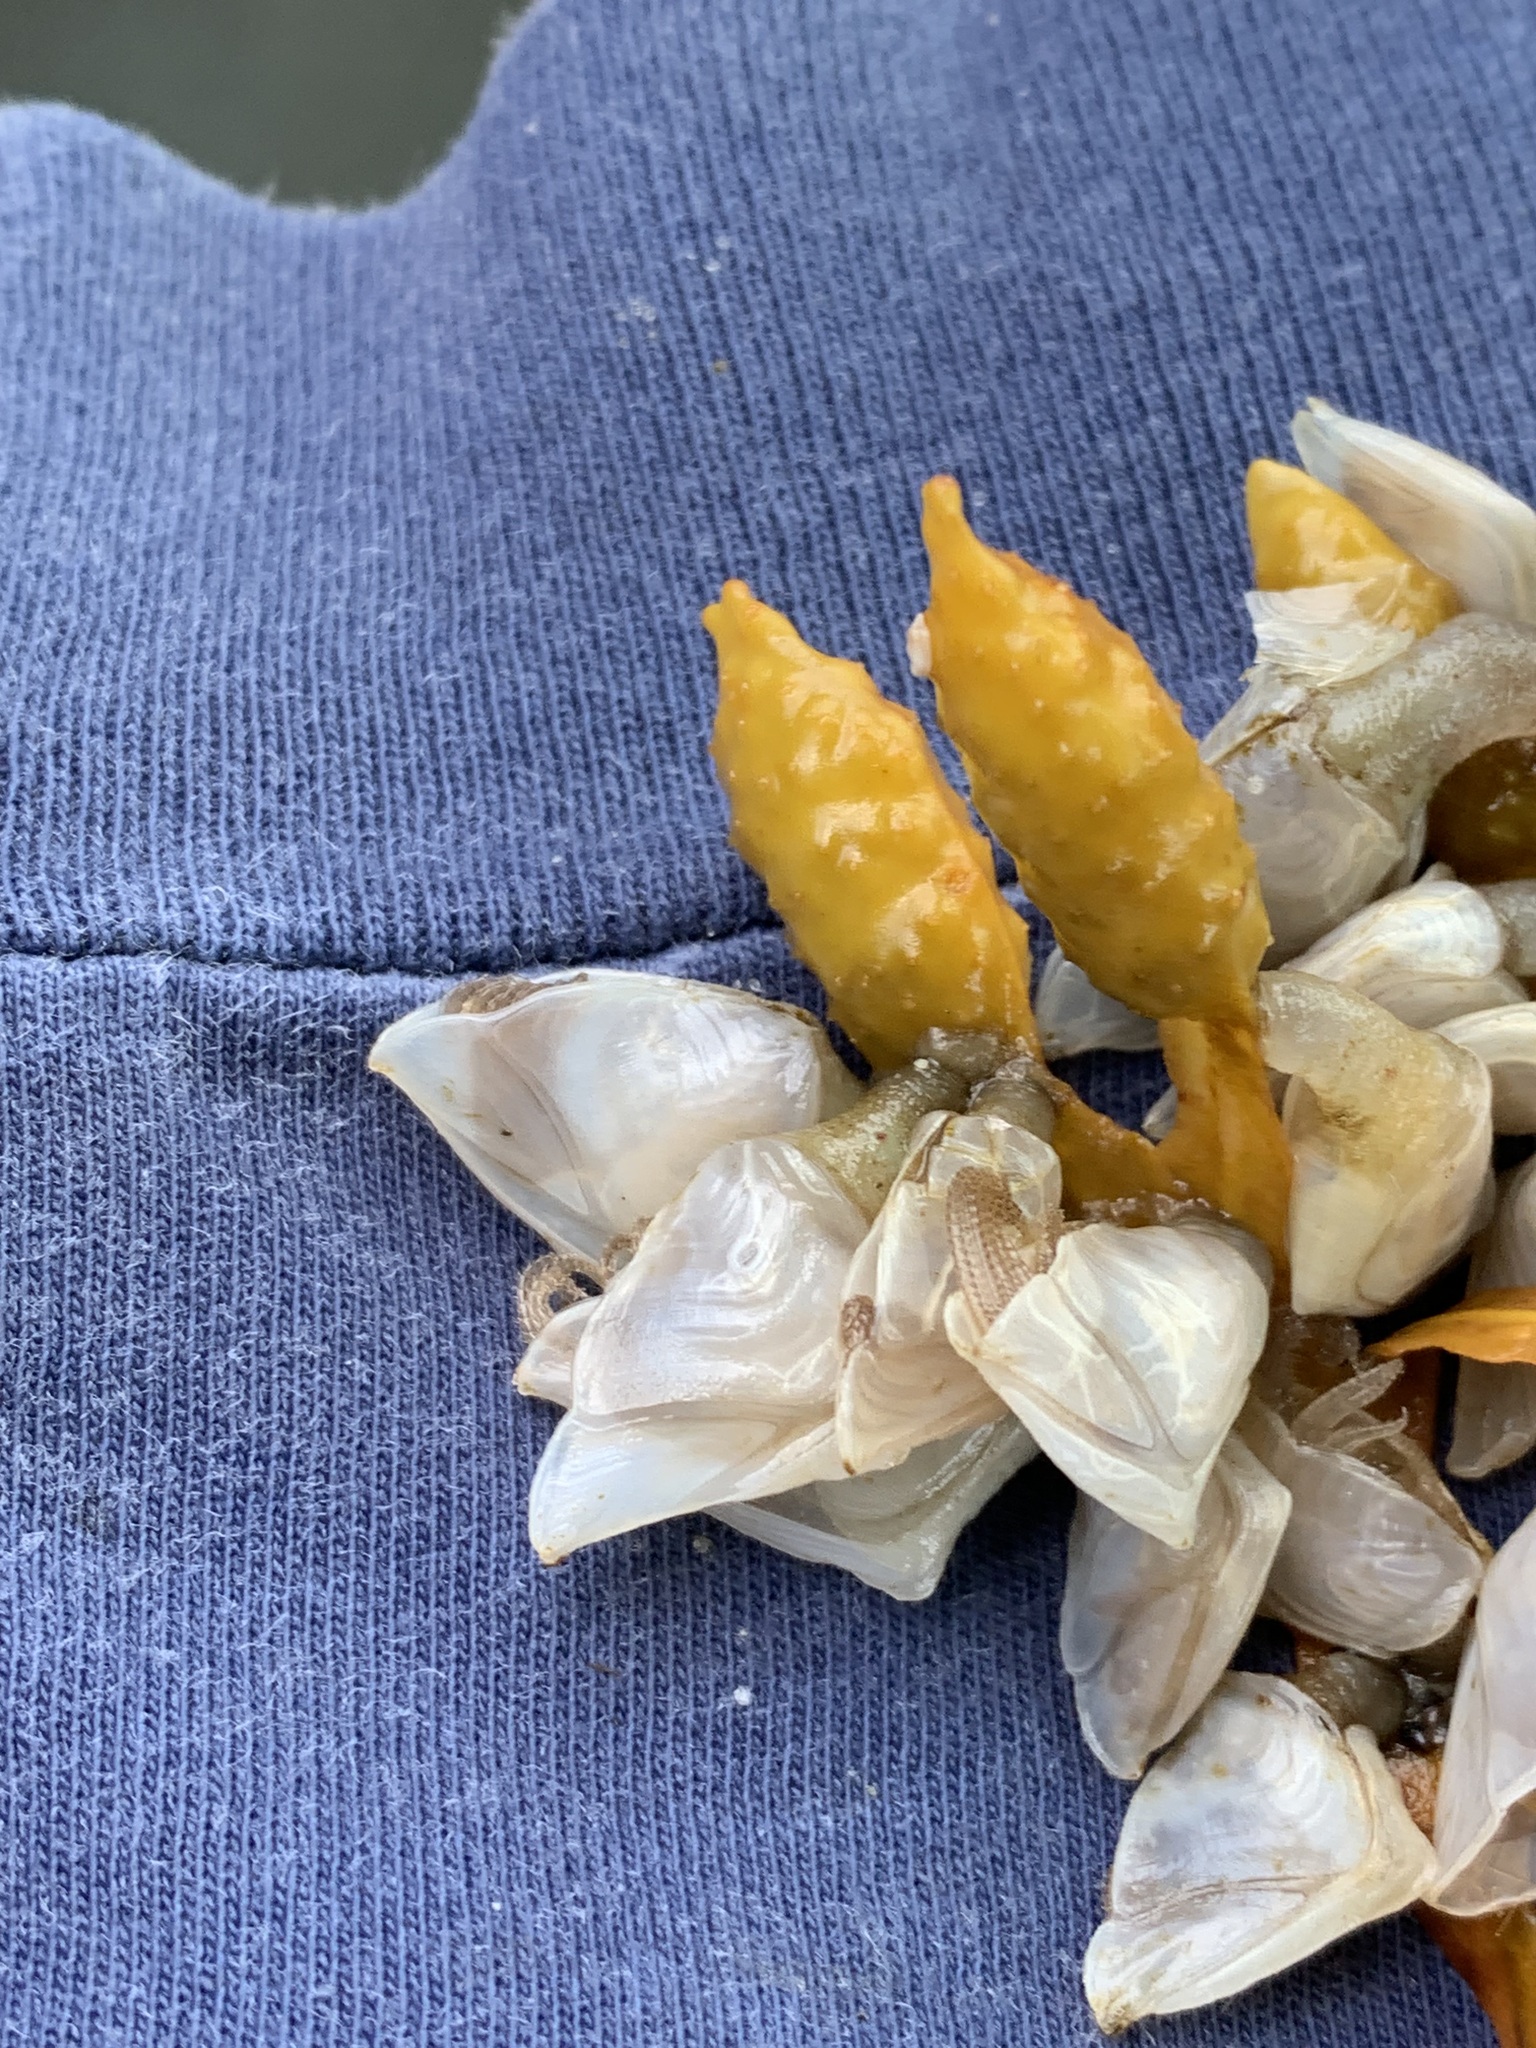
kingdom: Animalia
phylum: Arthropoda
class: Maxillopoda
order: Pedunculata
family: Lepadidae
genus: Dosima
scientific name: Dosima fascicularis
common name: Buoy barnacle
